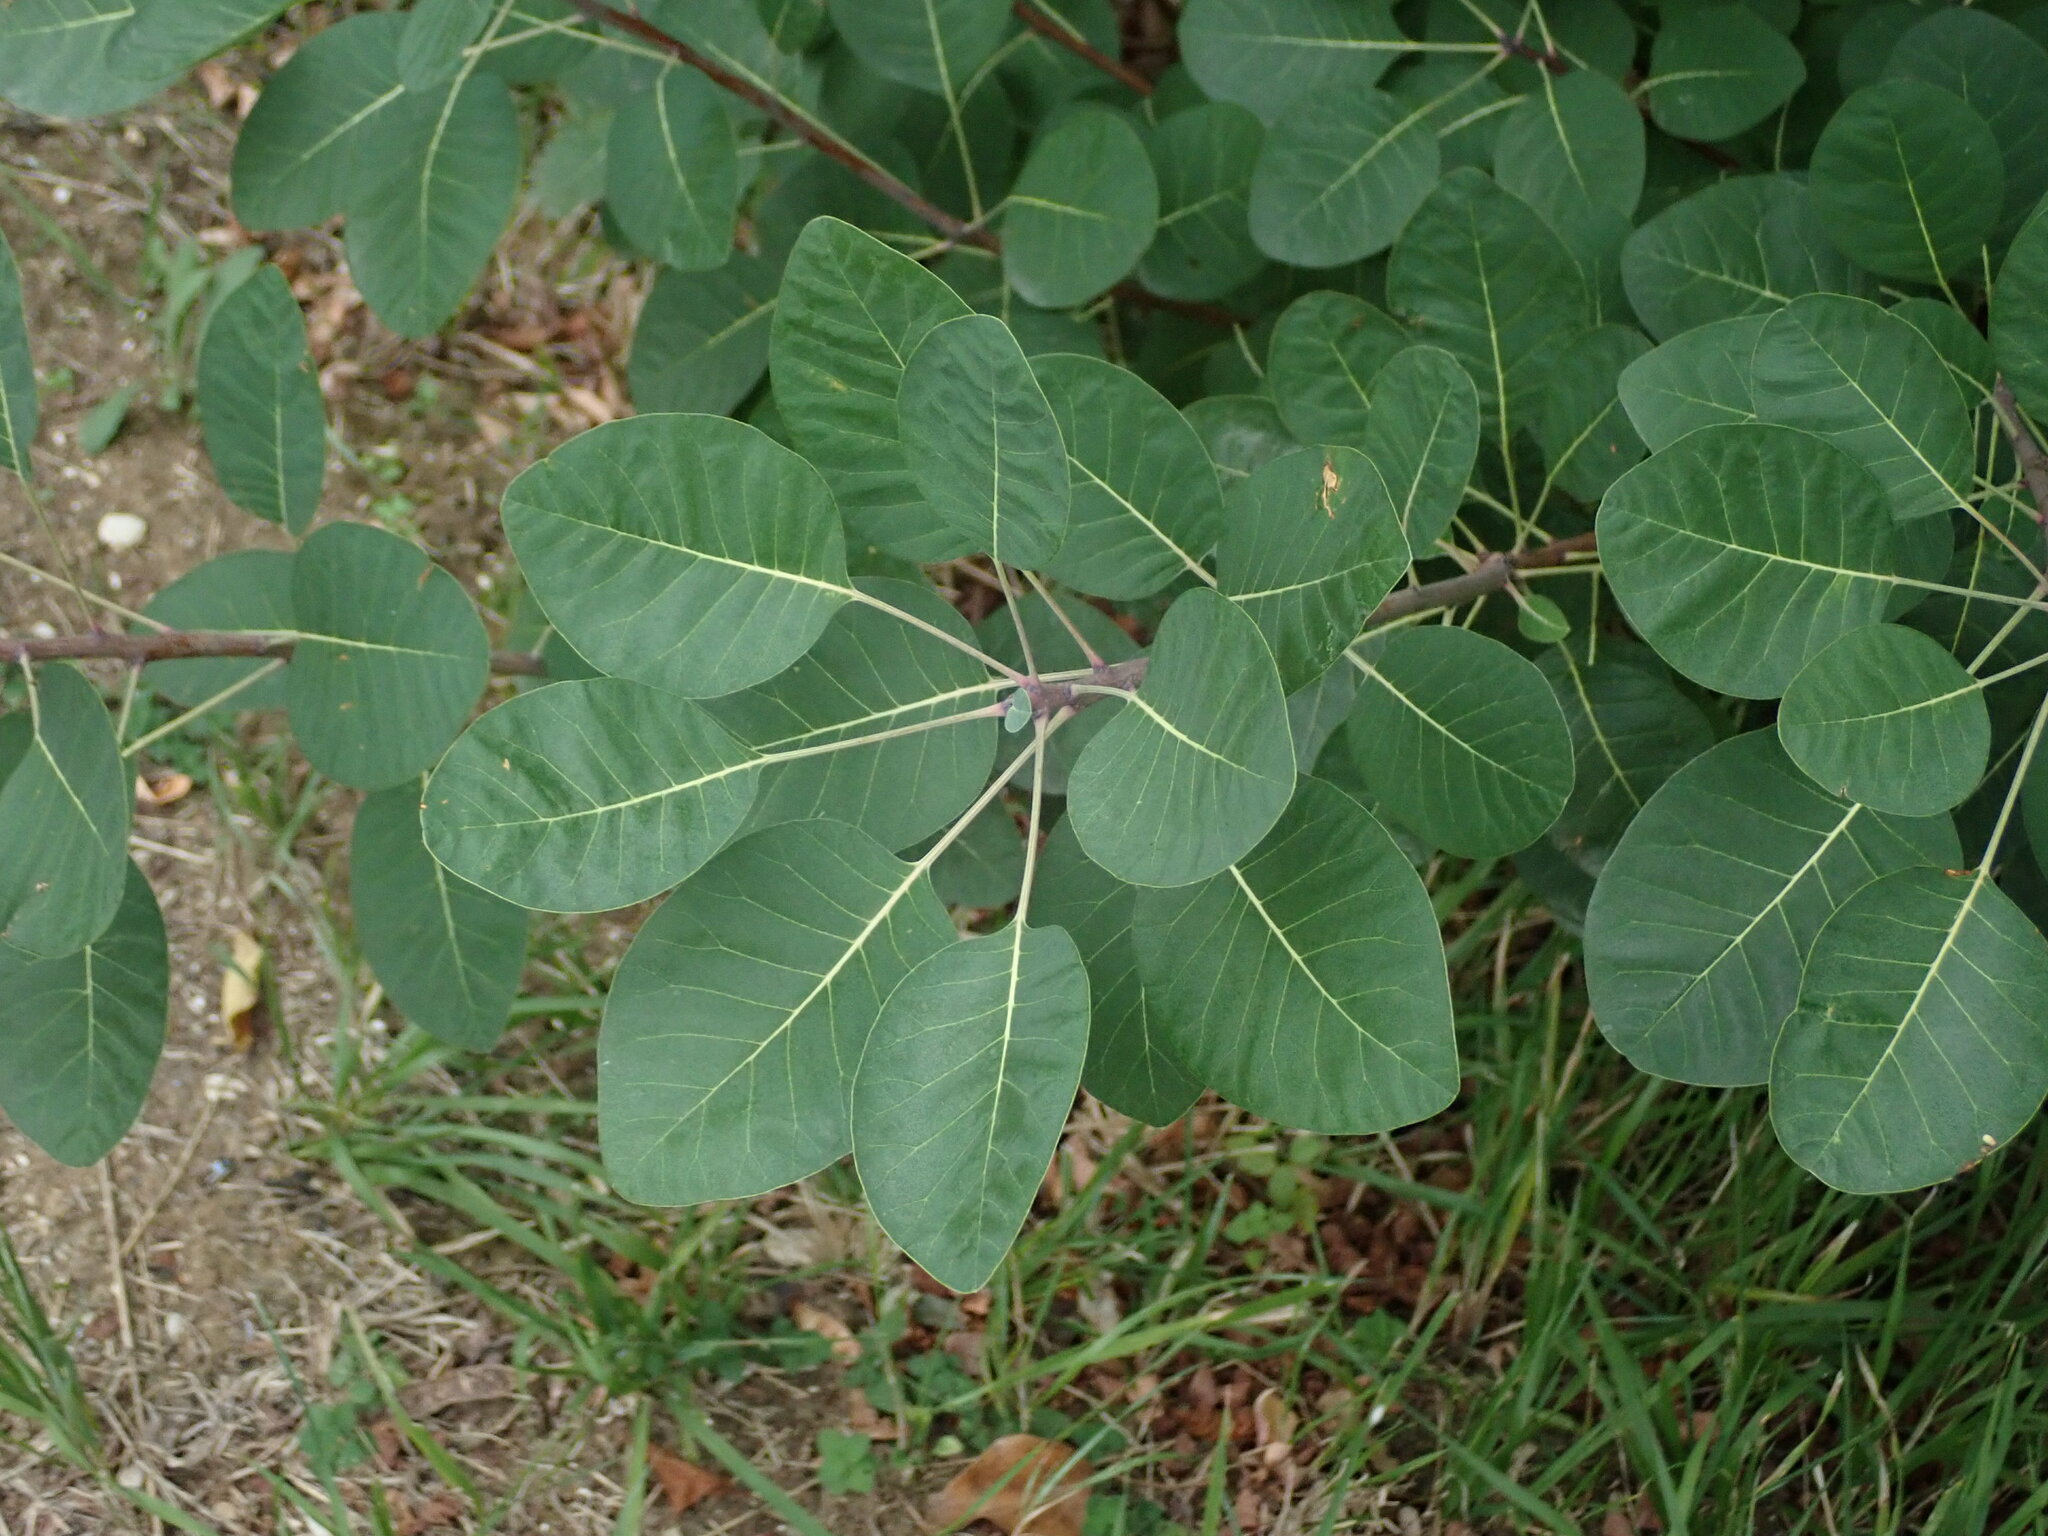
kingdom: Plantae
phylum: Tracheophyta
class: Magnoliopsida
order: Sapindales
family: Anacardiaceae
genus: Cotinus
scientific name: Cotinus coggygria
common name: Smoke-tree
